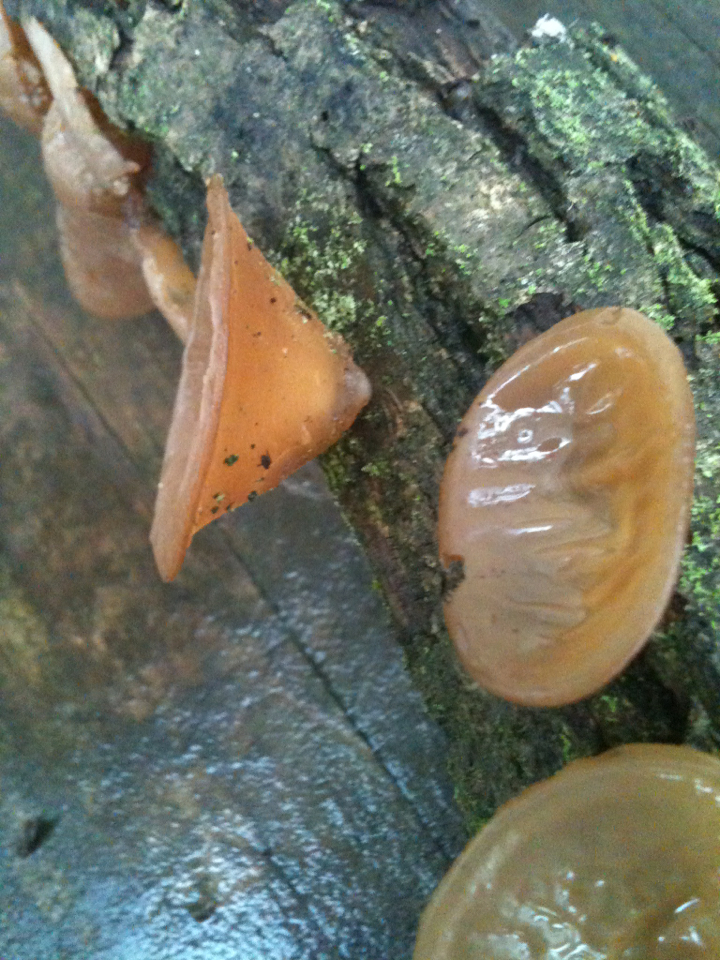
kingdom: Fungi
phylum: Basidiomycota
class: Agaricomycetes
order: Auriculariales
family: Auriculariaceae
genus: Auricularia
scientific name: Auricularia americana
